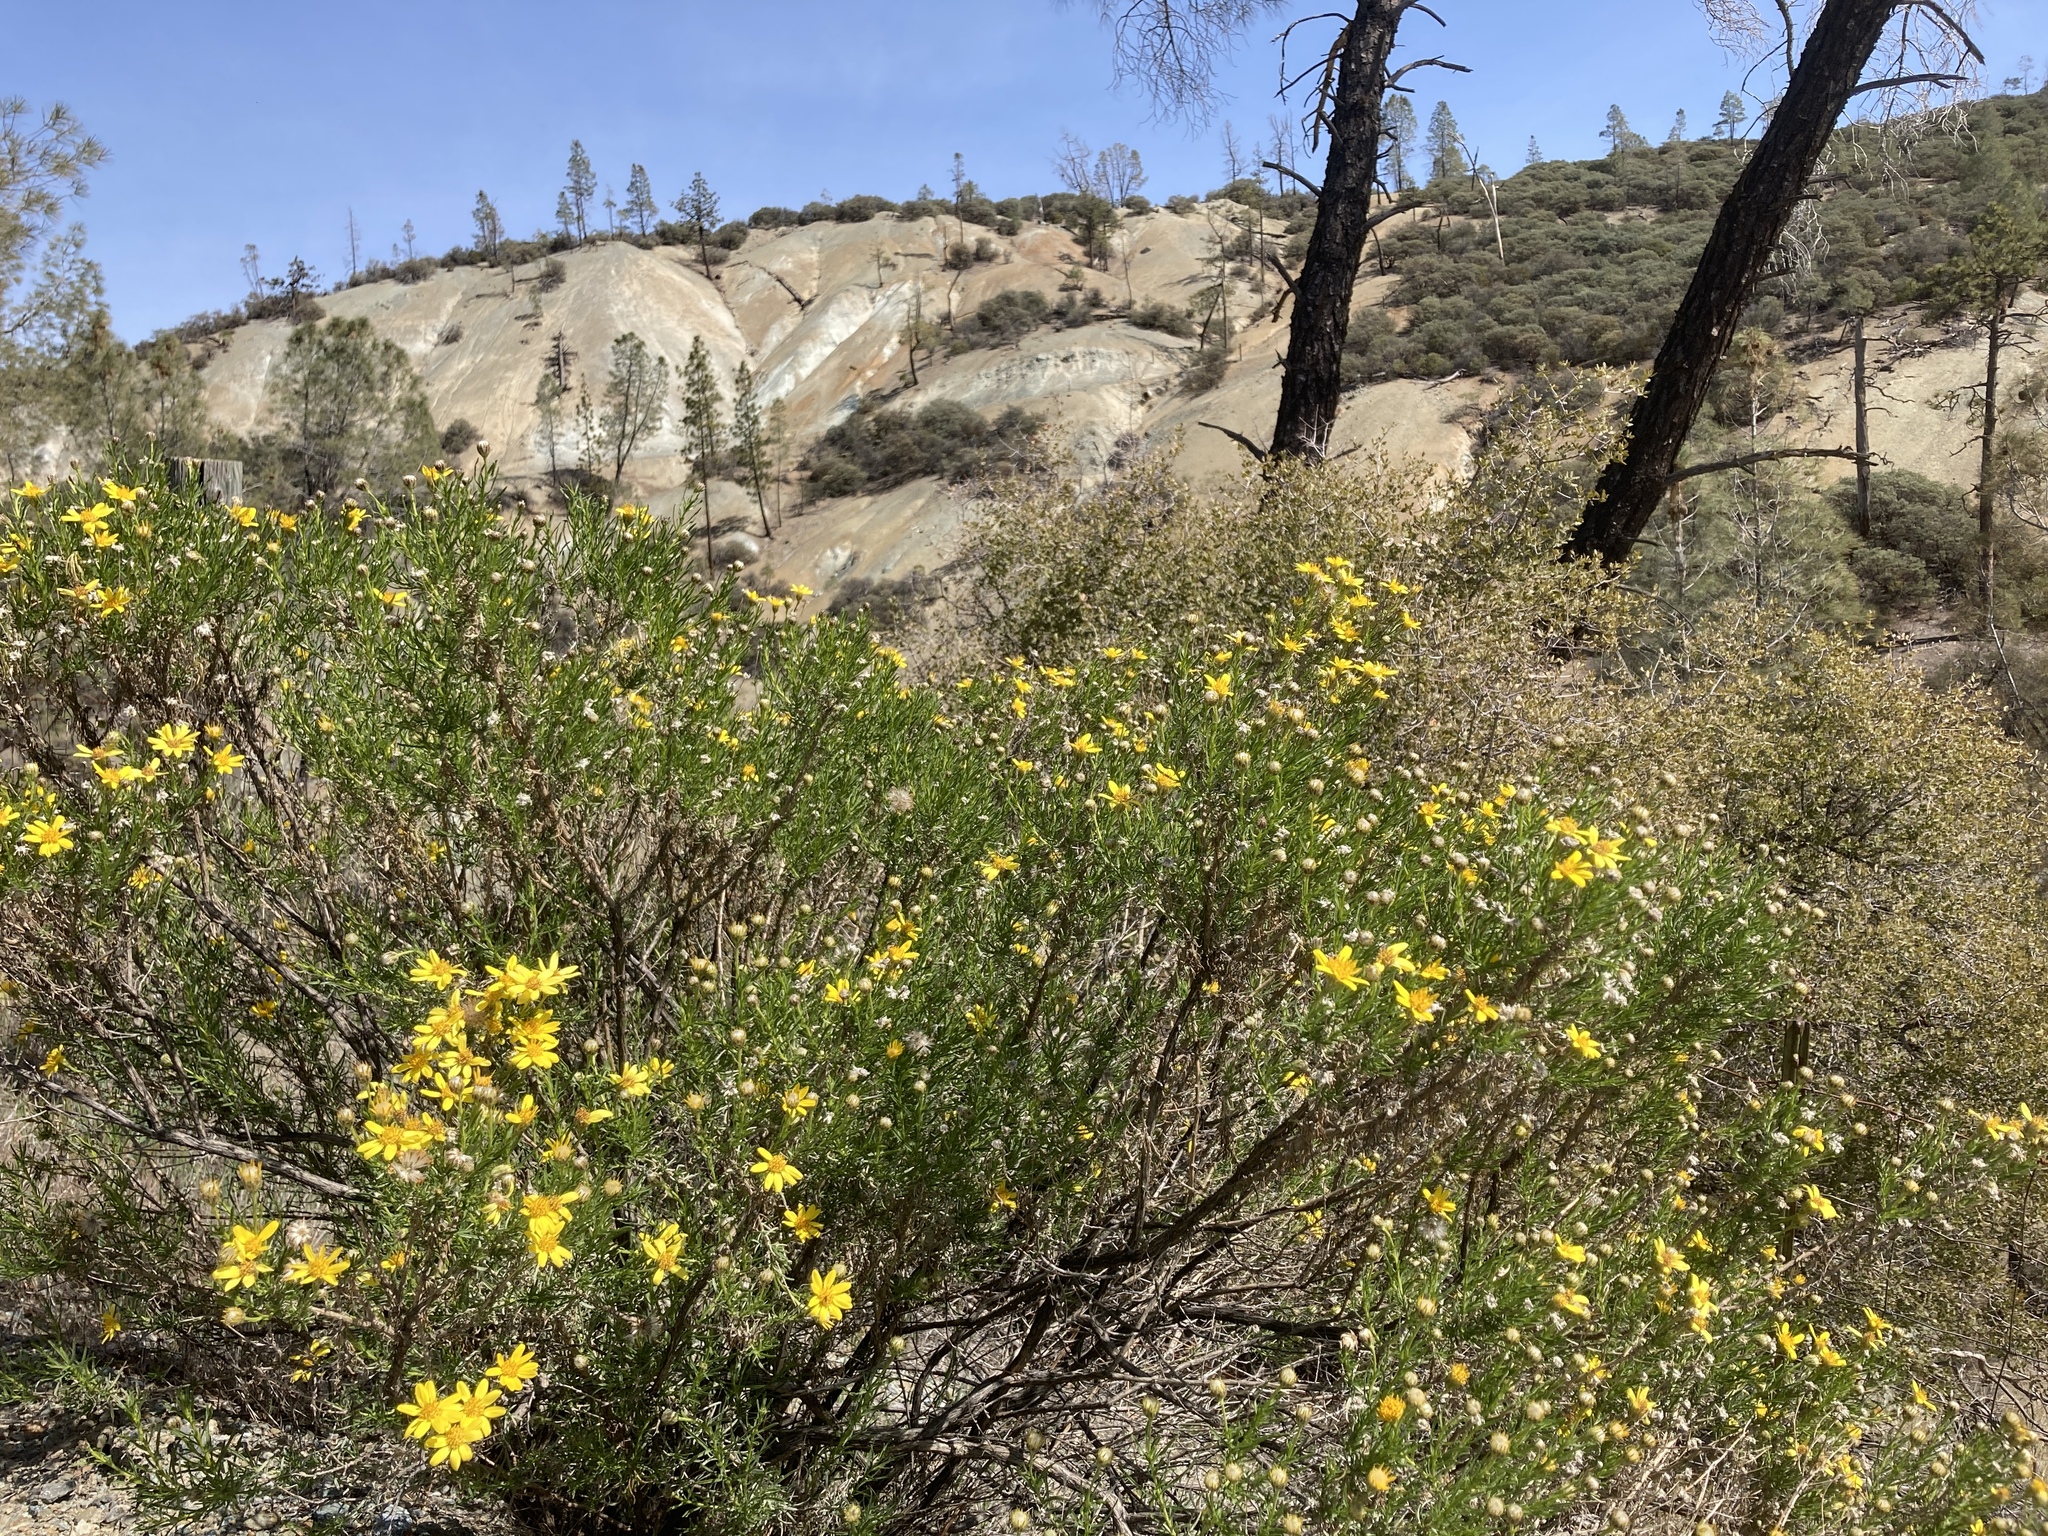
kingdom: Plantae
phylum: Tracheophyta
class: Magnoliopsida
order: Asterales
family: Asteraceae
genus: Ericameria
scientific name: Ericameria linearifolia
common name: Interior goldenbush
